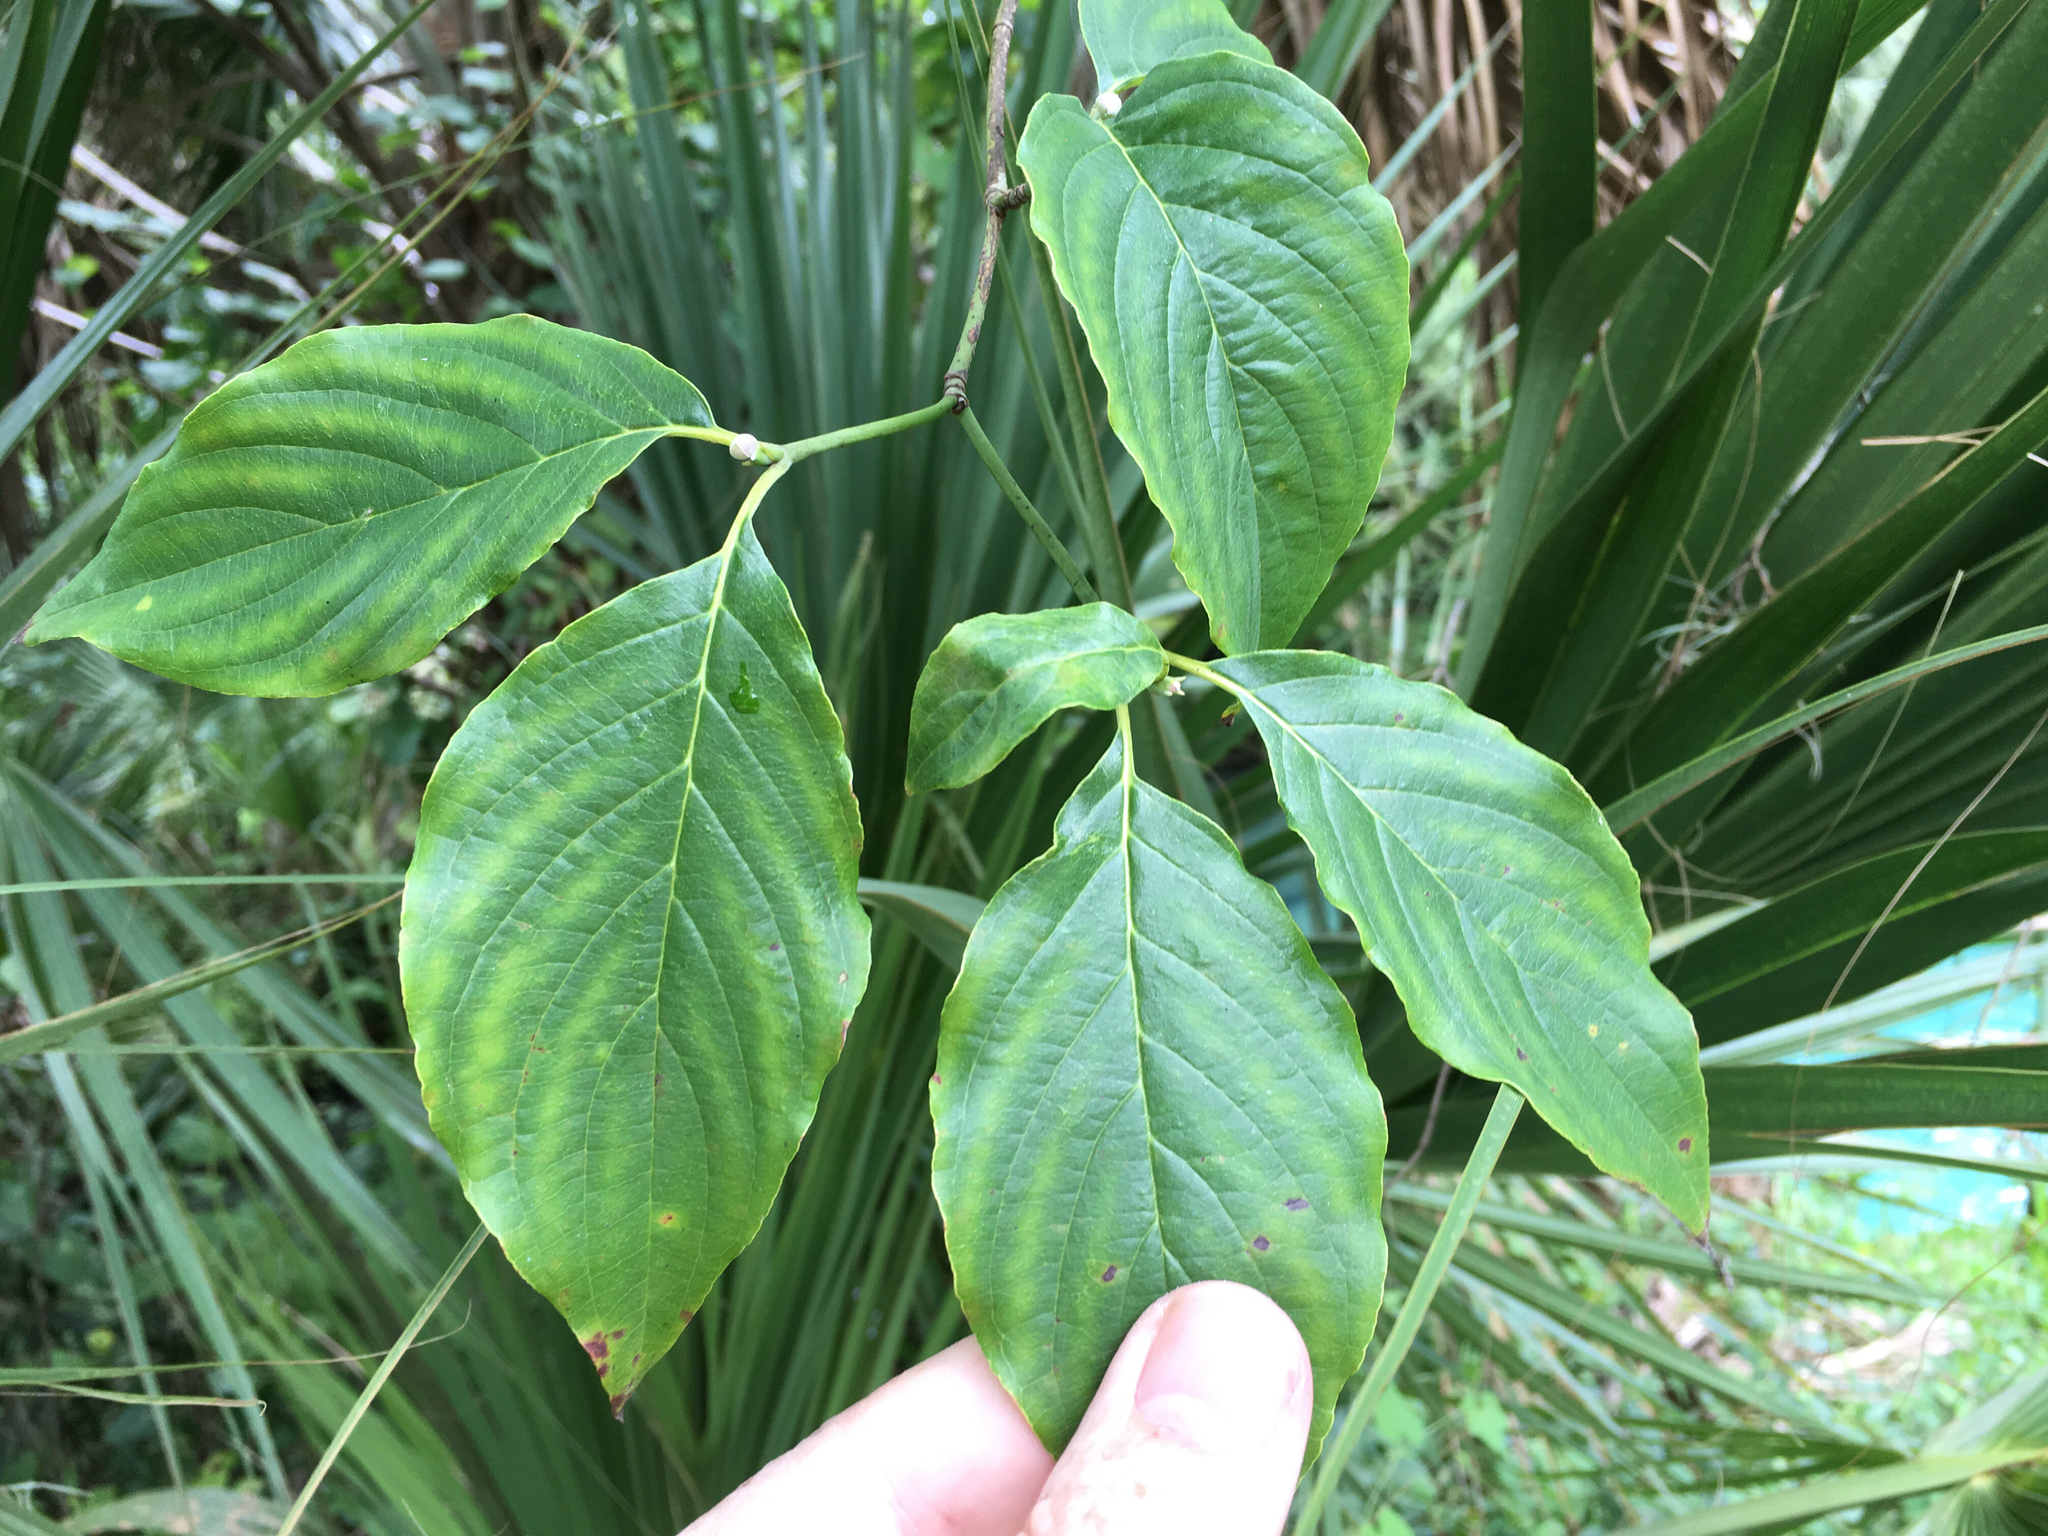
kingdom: Plantae
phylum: Tracheophyta
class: Magnoliopsida
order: Cornales
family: Cornaceae
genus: Cornus
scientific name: Cornus florida
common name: Flowering dogwood
